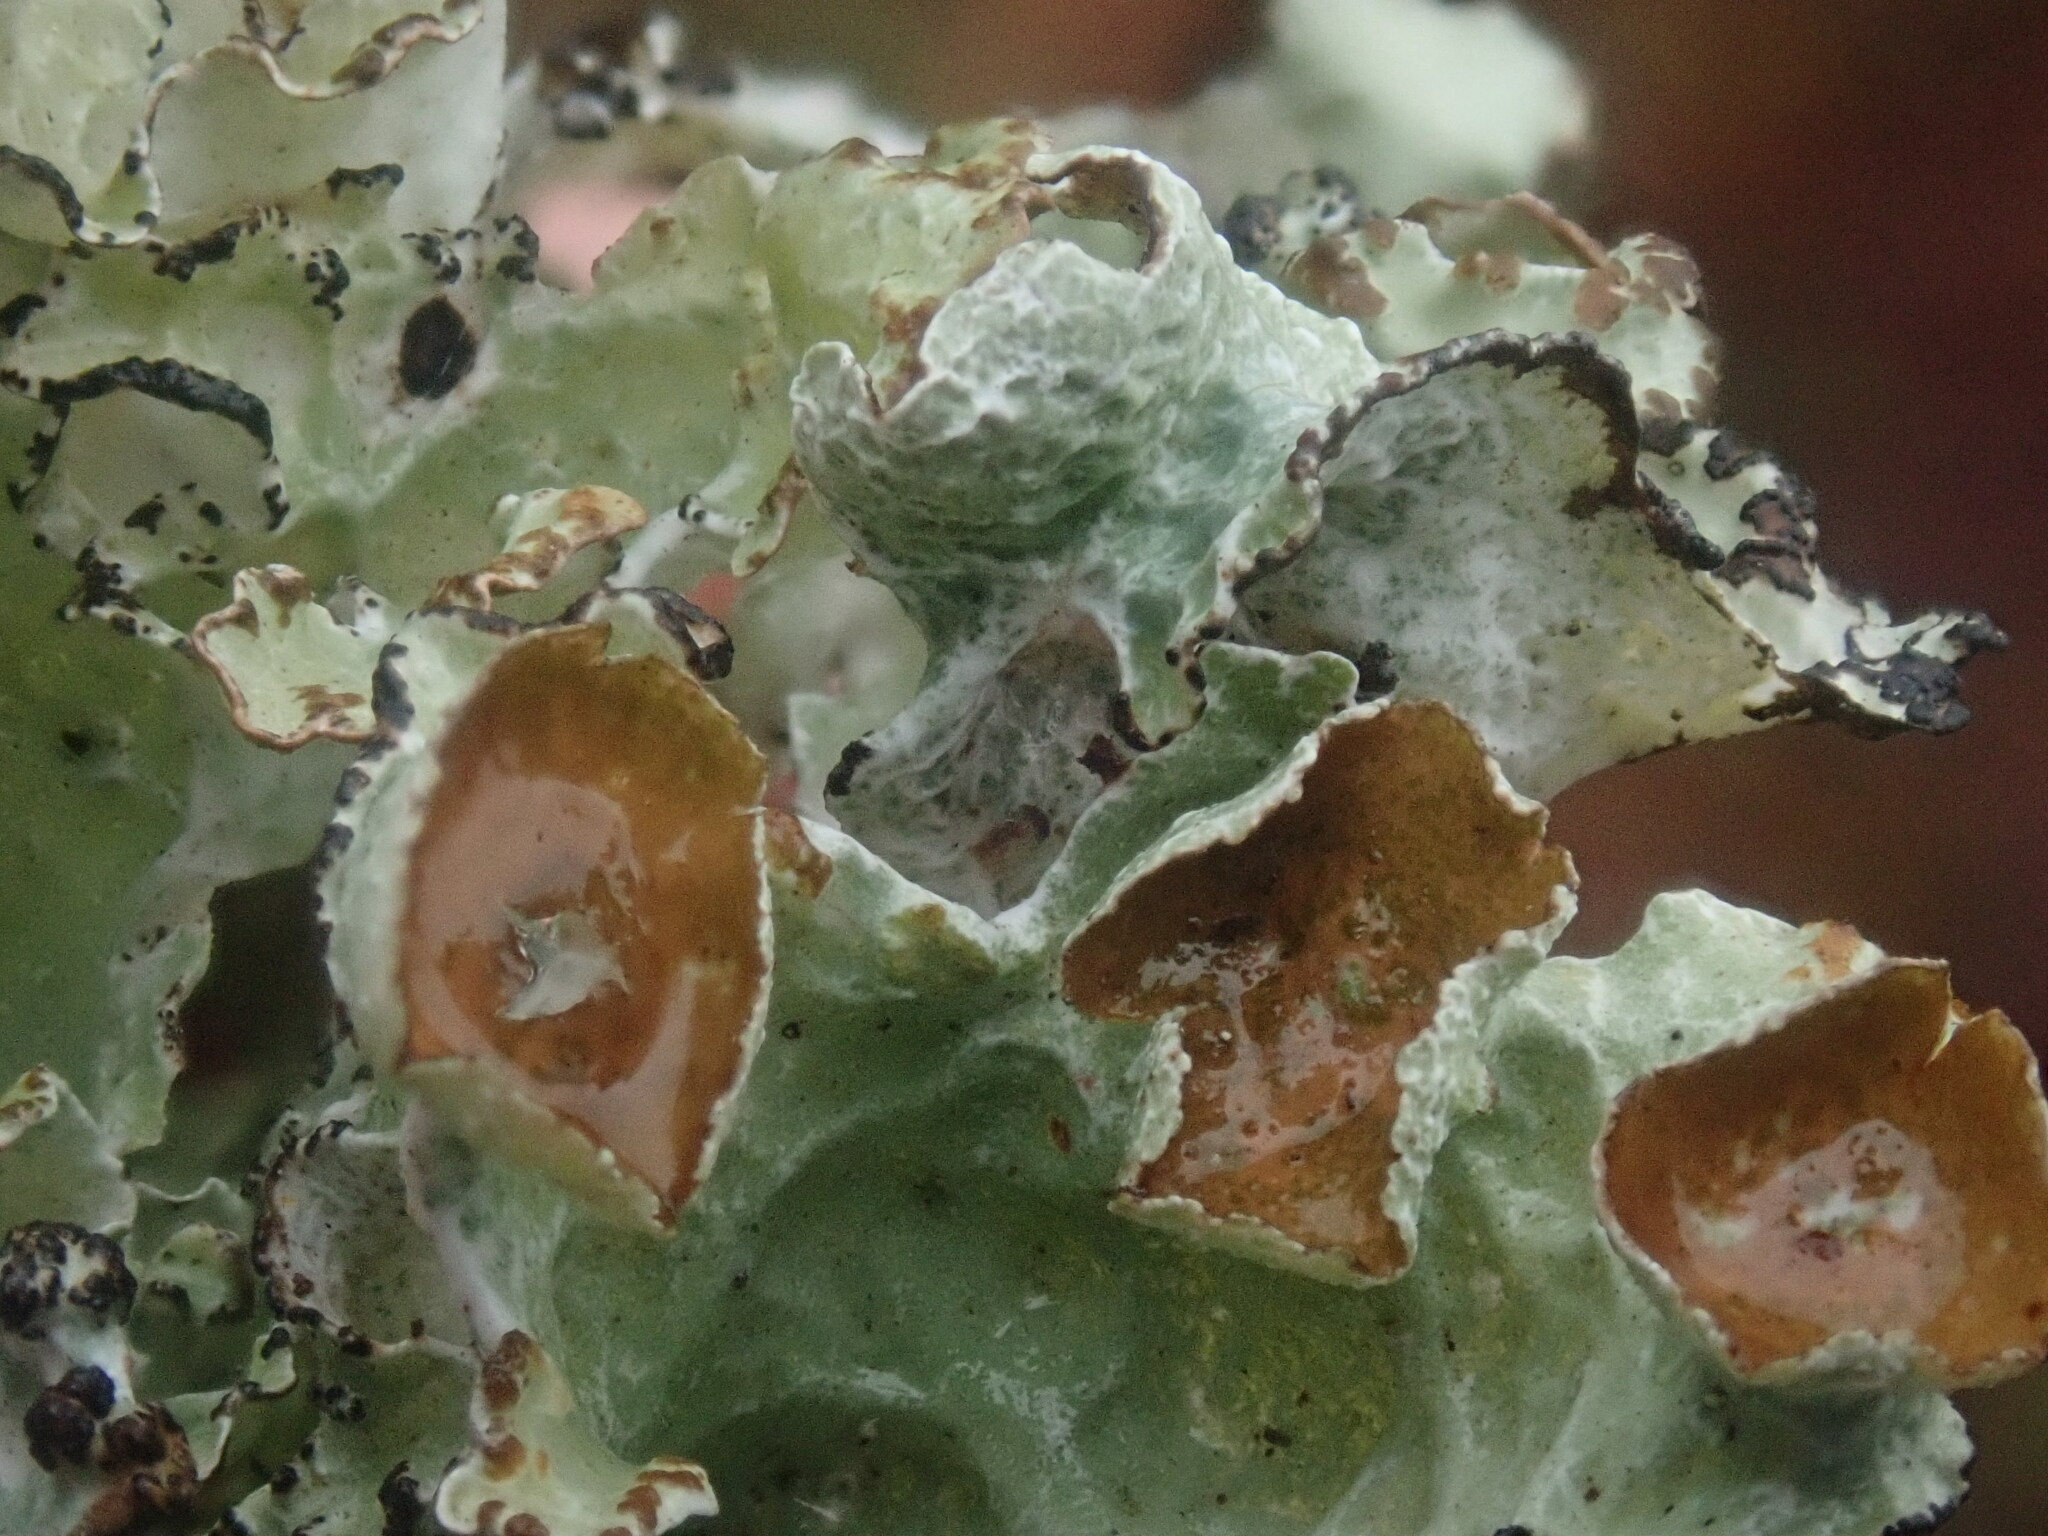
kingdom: Fungi
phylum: Ascomycota
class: Lecanoromycetes
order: Lecanorales
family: Parmeliaceae
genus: Platismatia
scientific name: Platismatia tuckermanii
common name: Crumpled rag lichen
